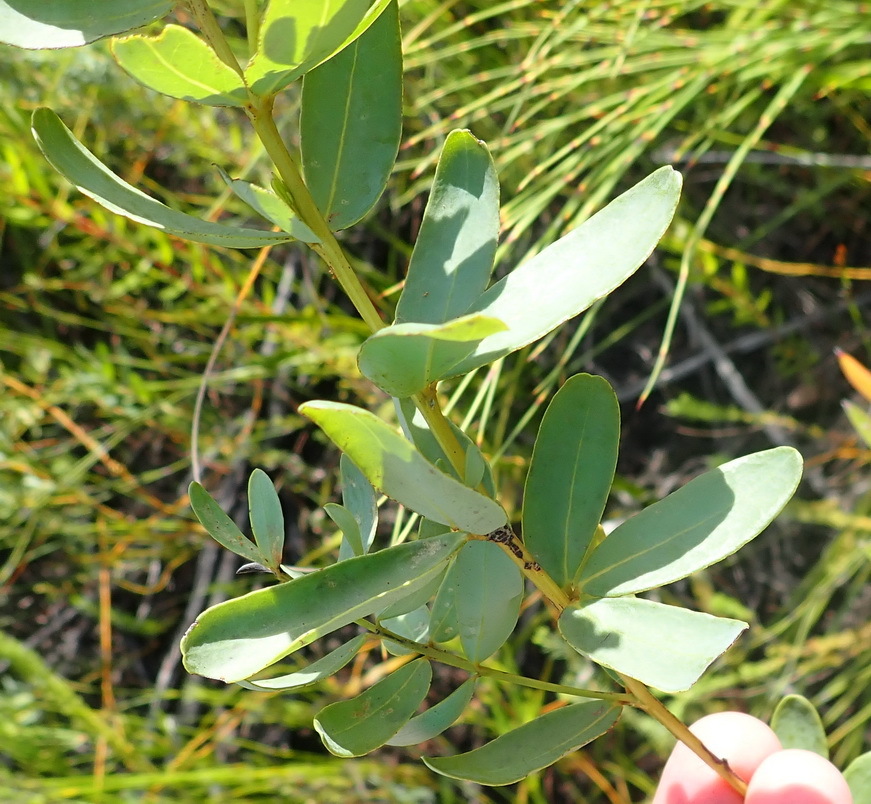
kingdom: Plantae
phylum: Tracheophyta
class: Magnoliopsida
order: Fabales
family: Fabaceae
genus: Cyclopia
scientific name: Cyclopia subternata
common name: Honeybush tea
